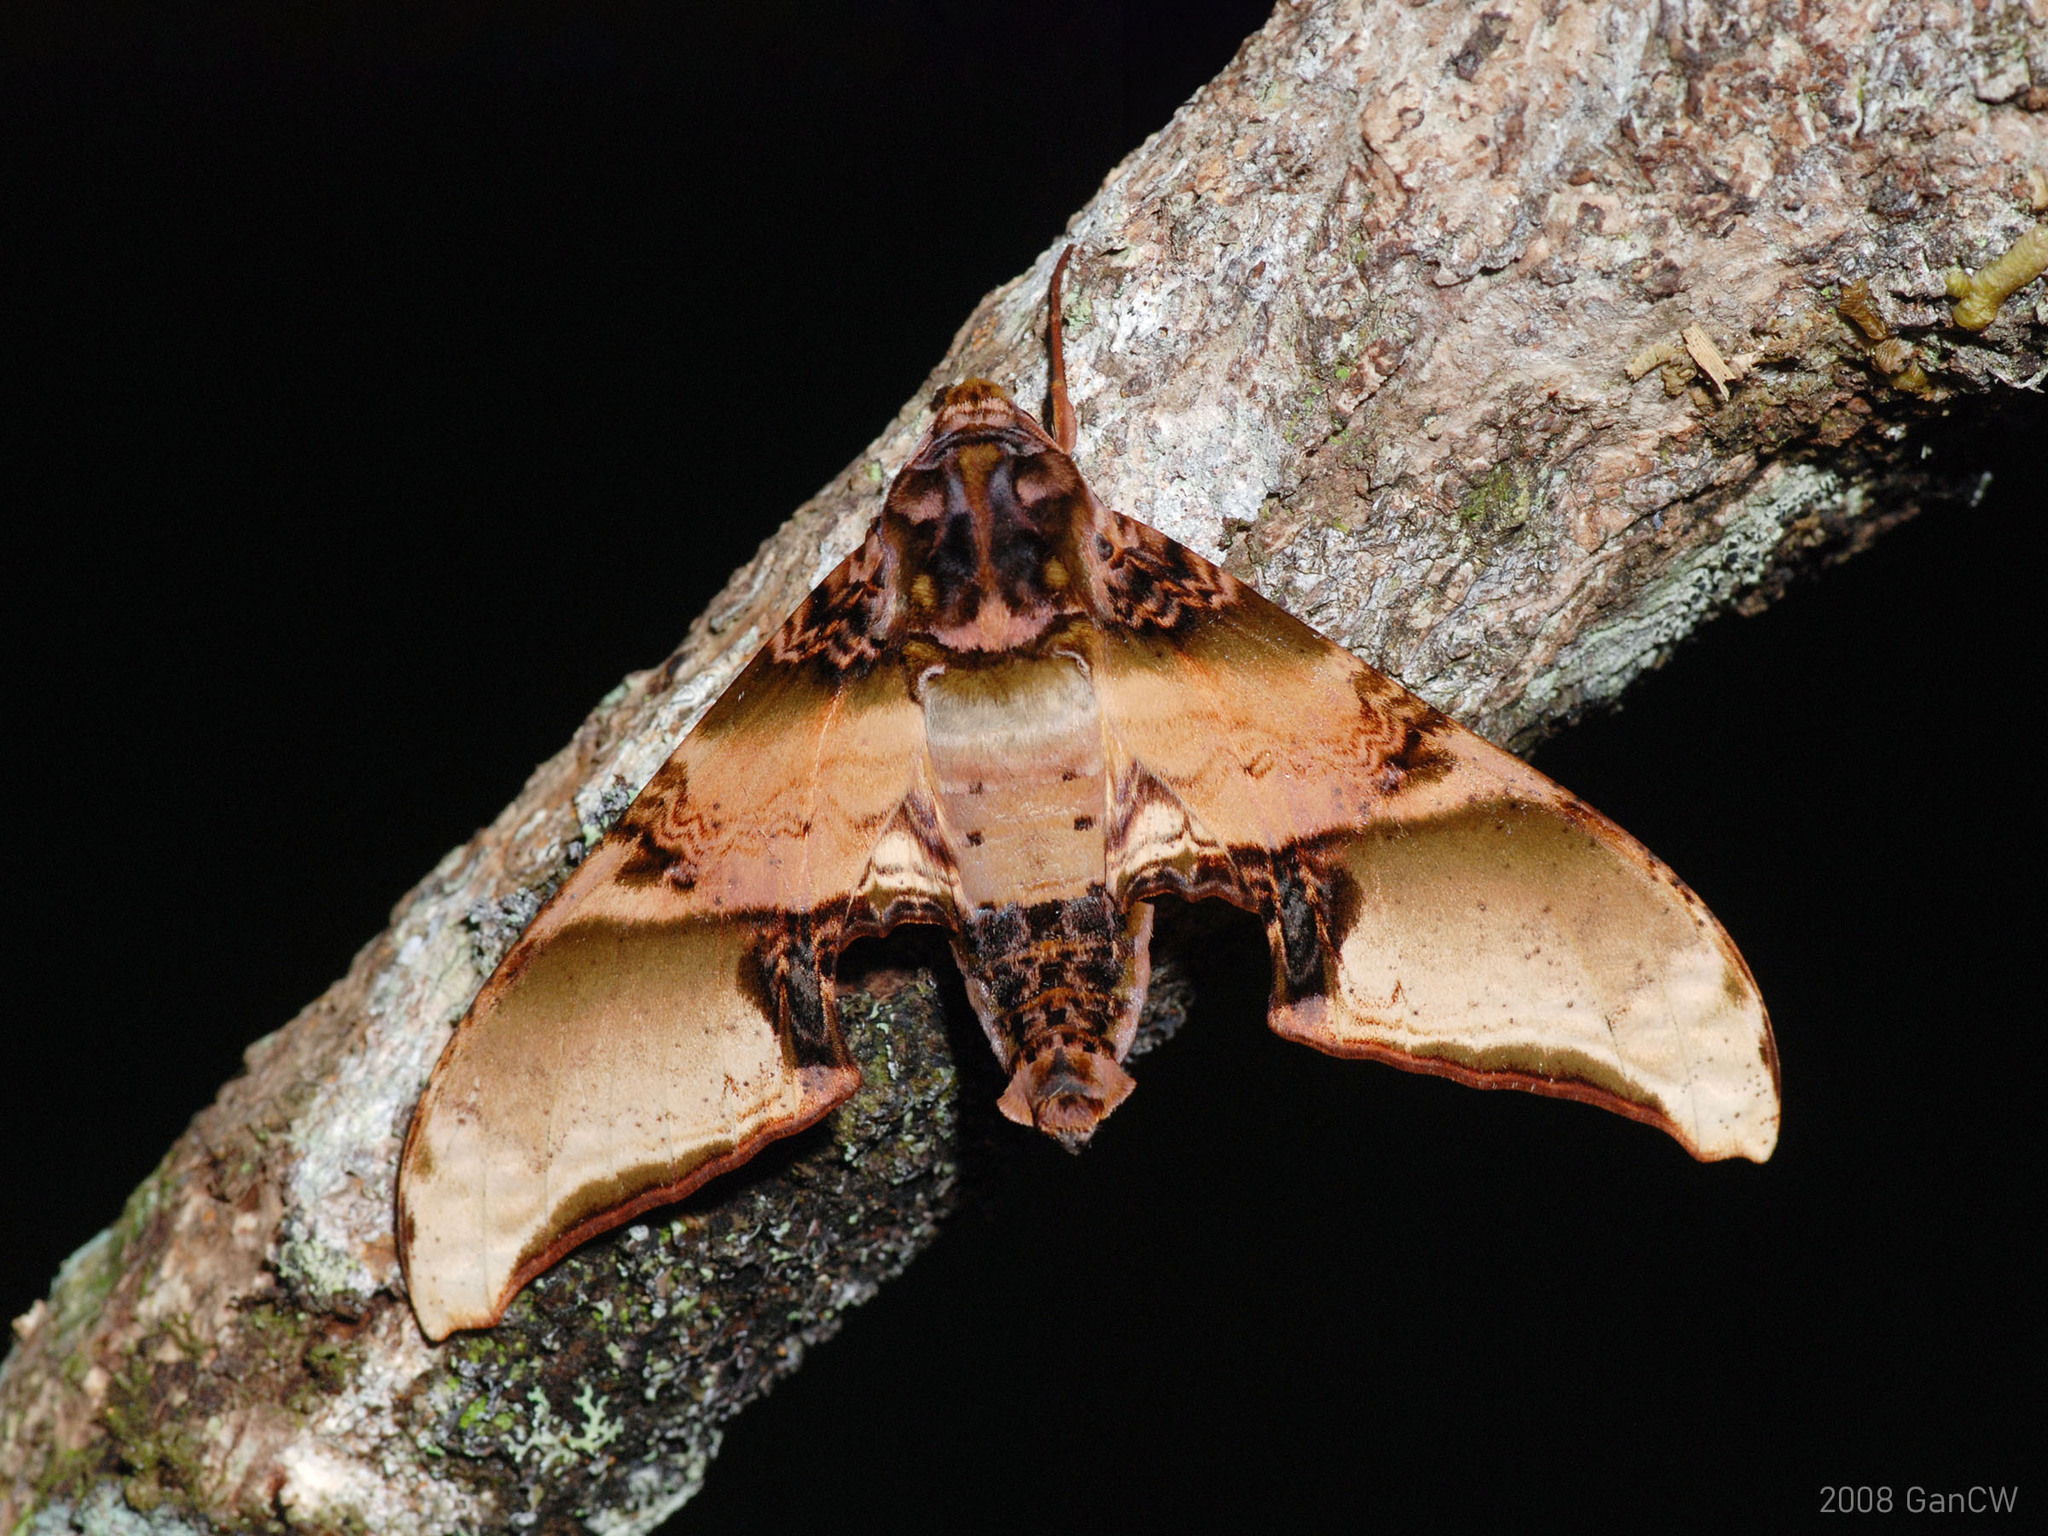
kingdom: Animalia
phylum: Arthropoda
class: Insecta
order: Lepidoptera
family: Sphingidae
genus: Amplypterus
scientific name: Amplypterus mansoni
